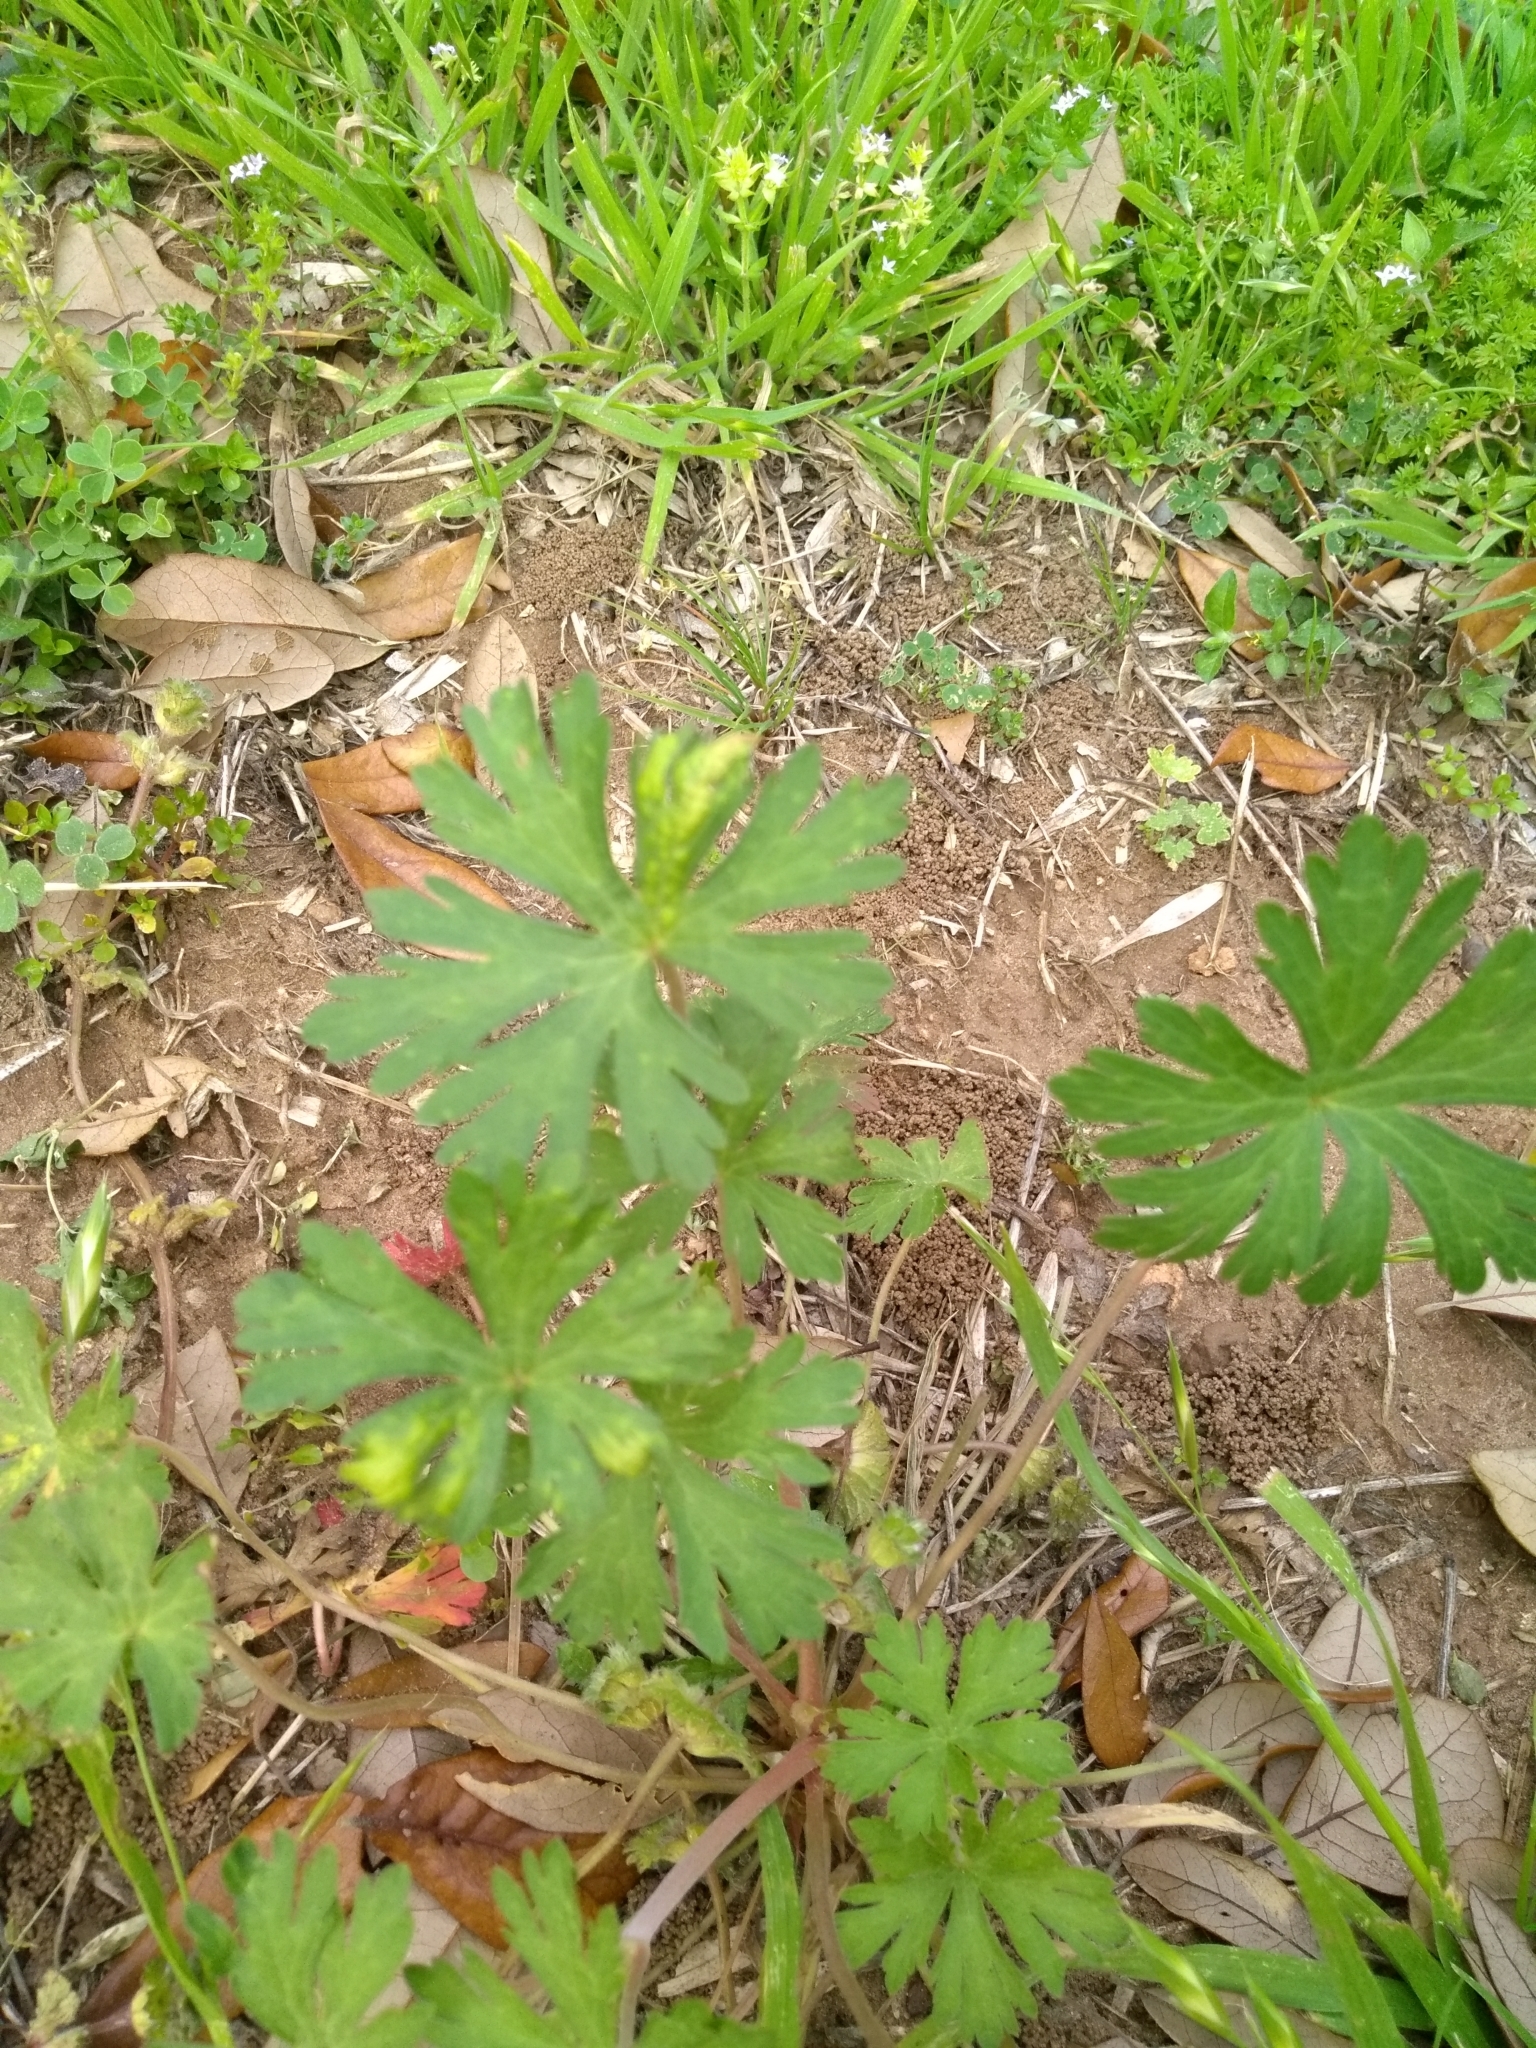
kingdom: Plantae
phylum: Tracheophyta
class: Magnoliopsida
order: Geraniales
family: Geraniaceae
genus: Geranium
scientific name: Geranium carolinianum
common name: Carolina crane's-bill
